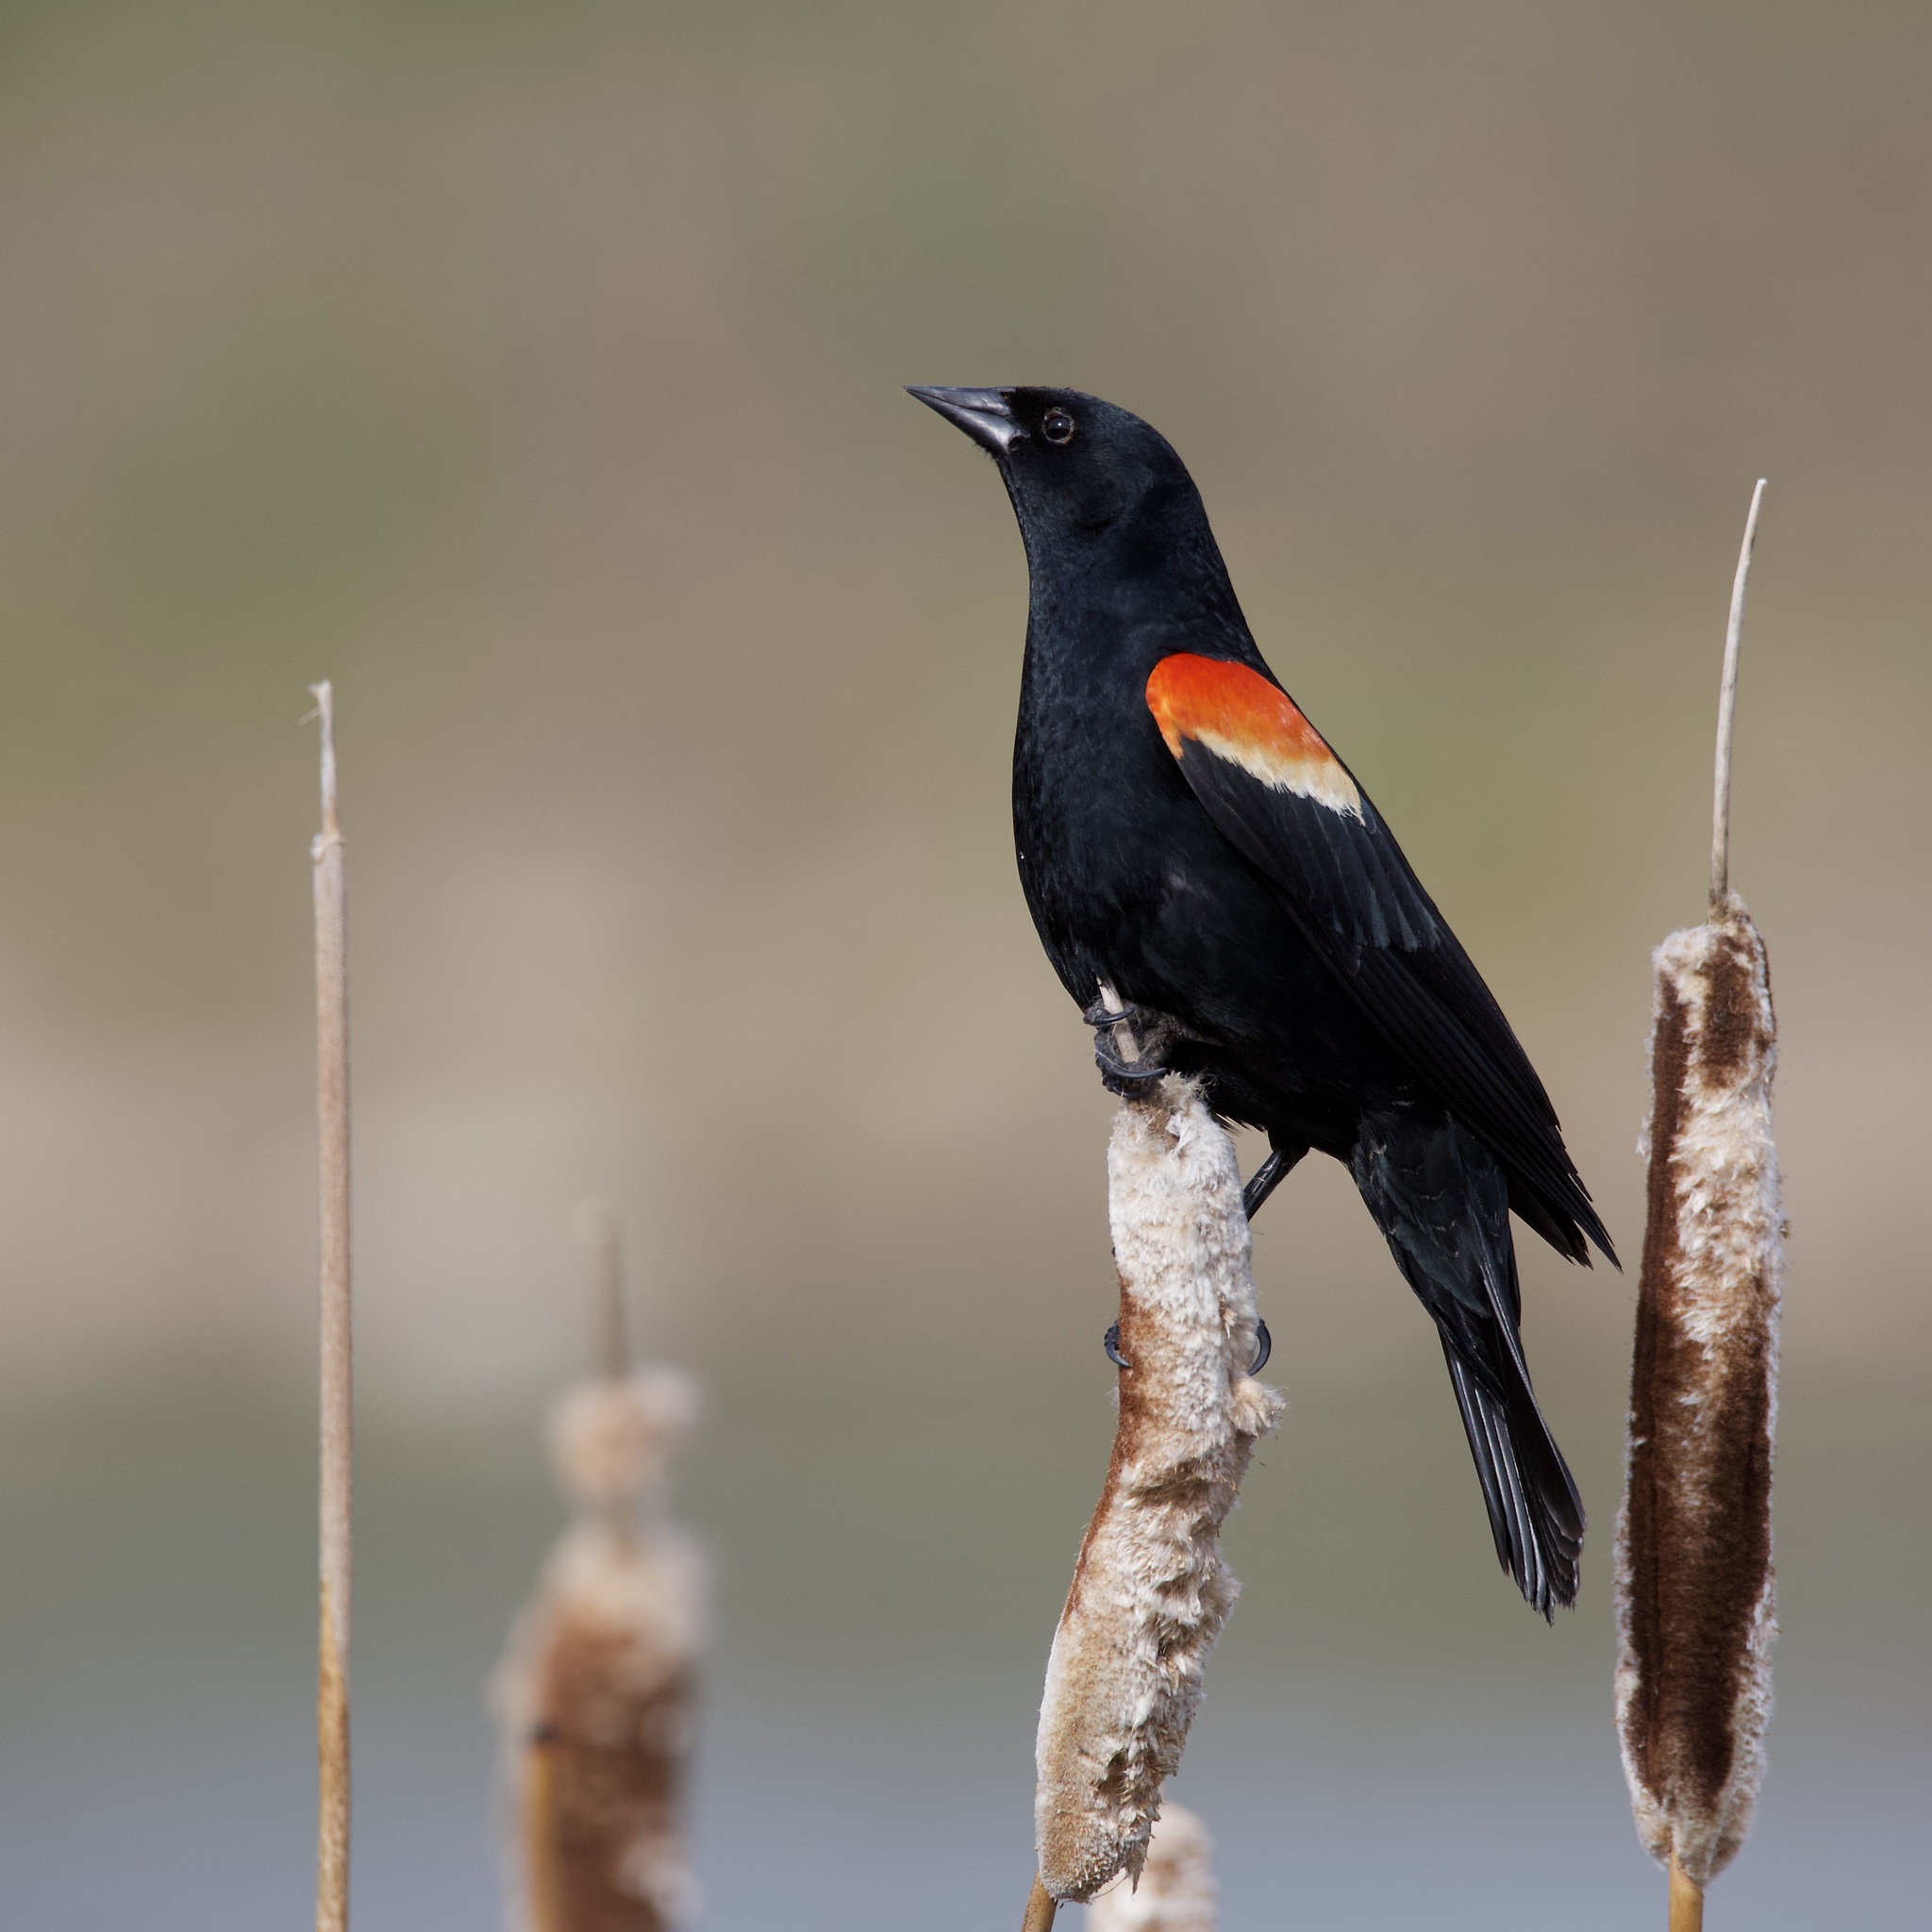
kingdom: Animalia
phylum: Chordata
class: Aves
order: Passeriformes
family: Icteridae
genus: Agelaius
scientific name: Agelaius phoeniceus
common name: Red-winged blackbird
